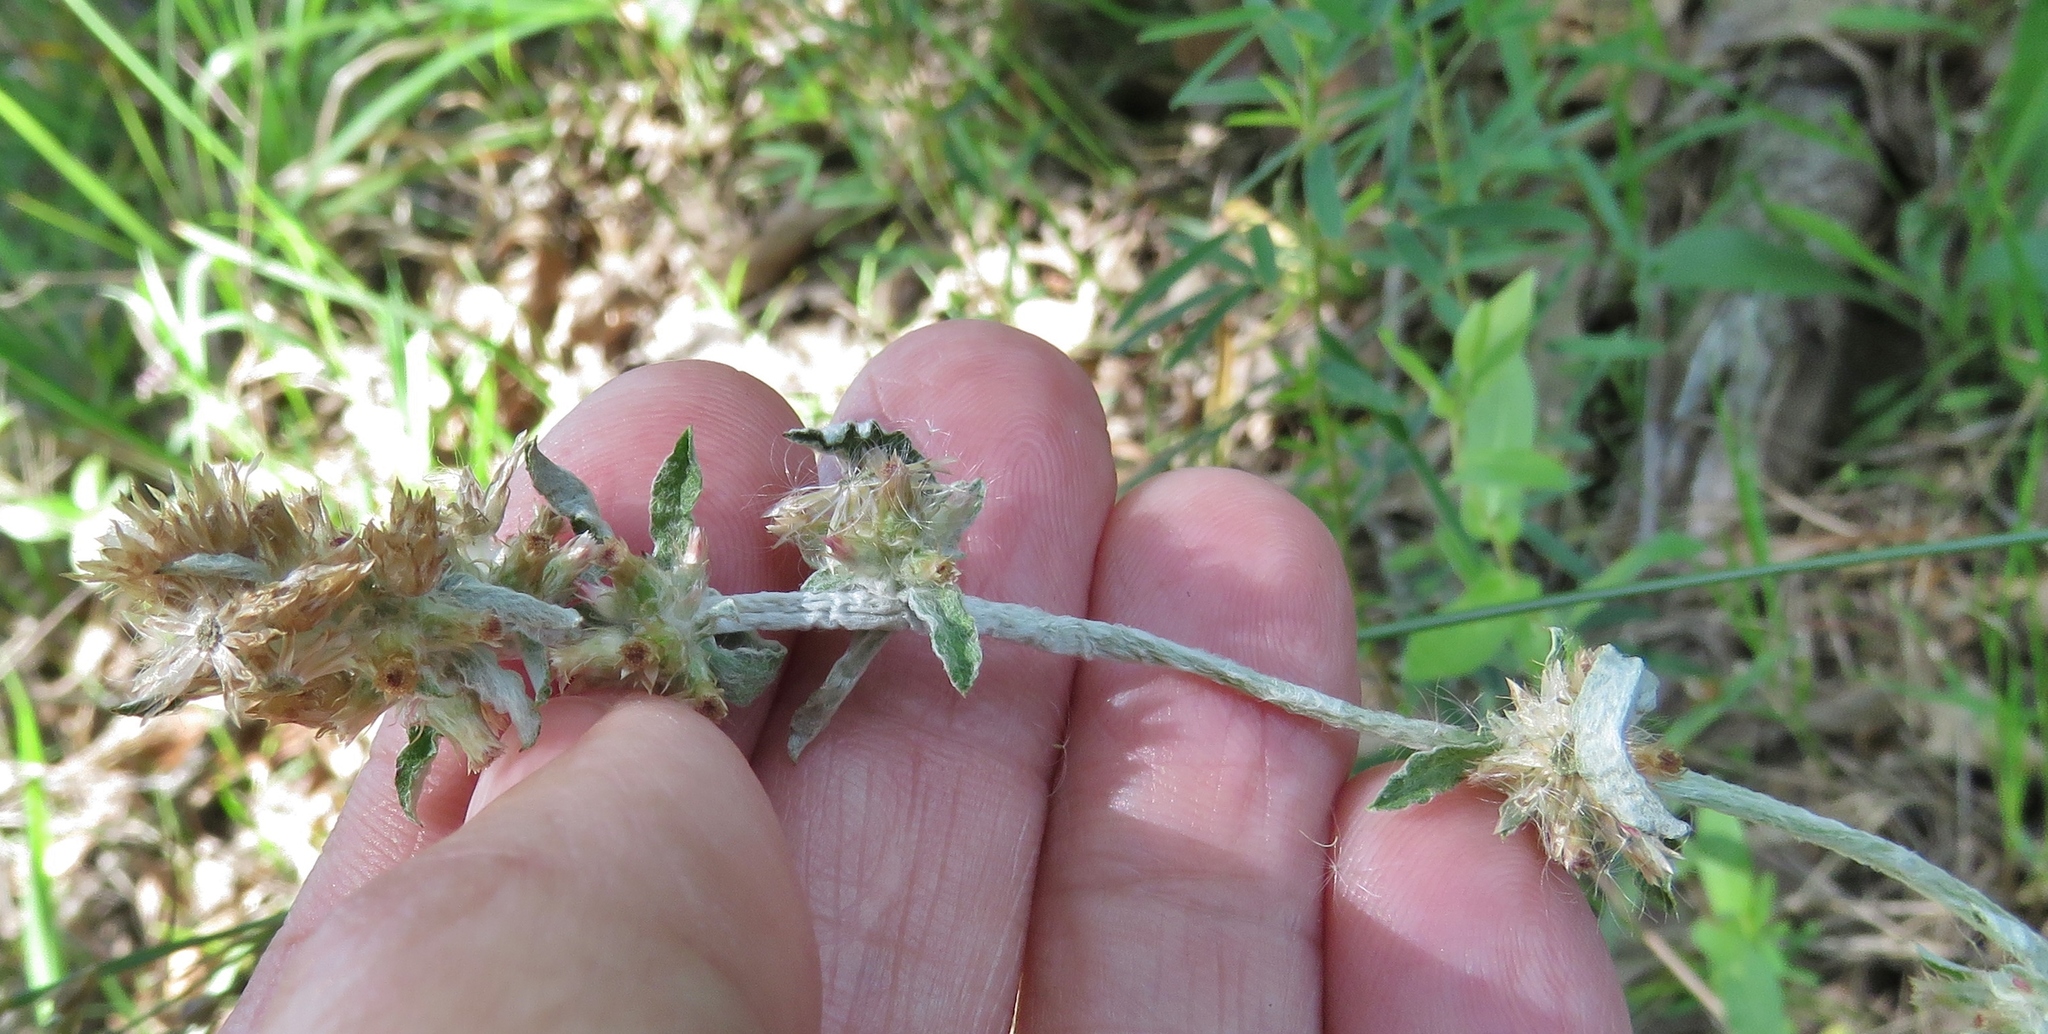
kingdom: Plantae
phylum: Tracheophyta
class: Magnoliopsida
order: Asterales
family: Asteraceae
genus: Gamochaeta
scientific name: Gamochaeta pensylvanica
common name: Pennsylvania everlasting
